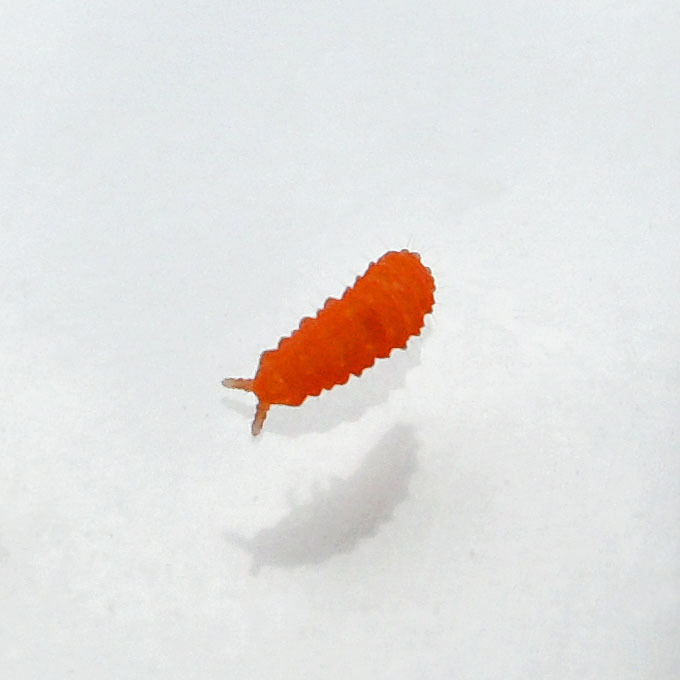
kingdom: Animalia
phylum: Arthropoda
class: Collembola
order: Poduromorpha
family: Neanuridae
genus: Vitronura
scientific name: Vitronura giselae
